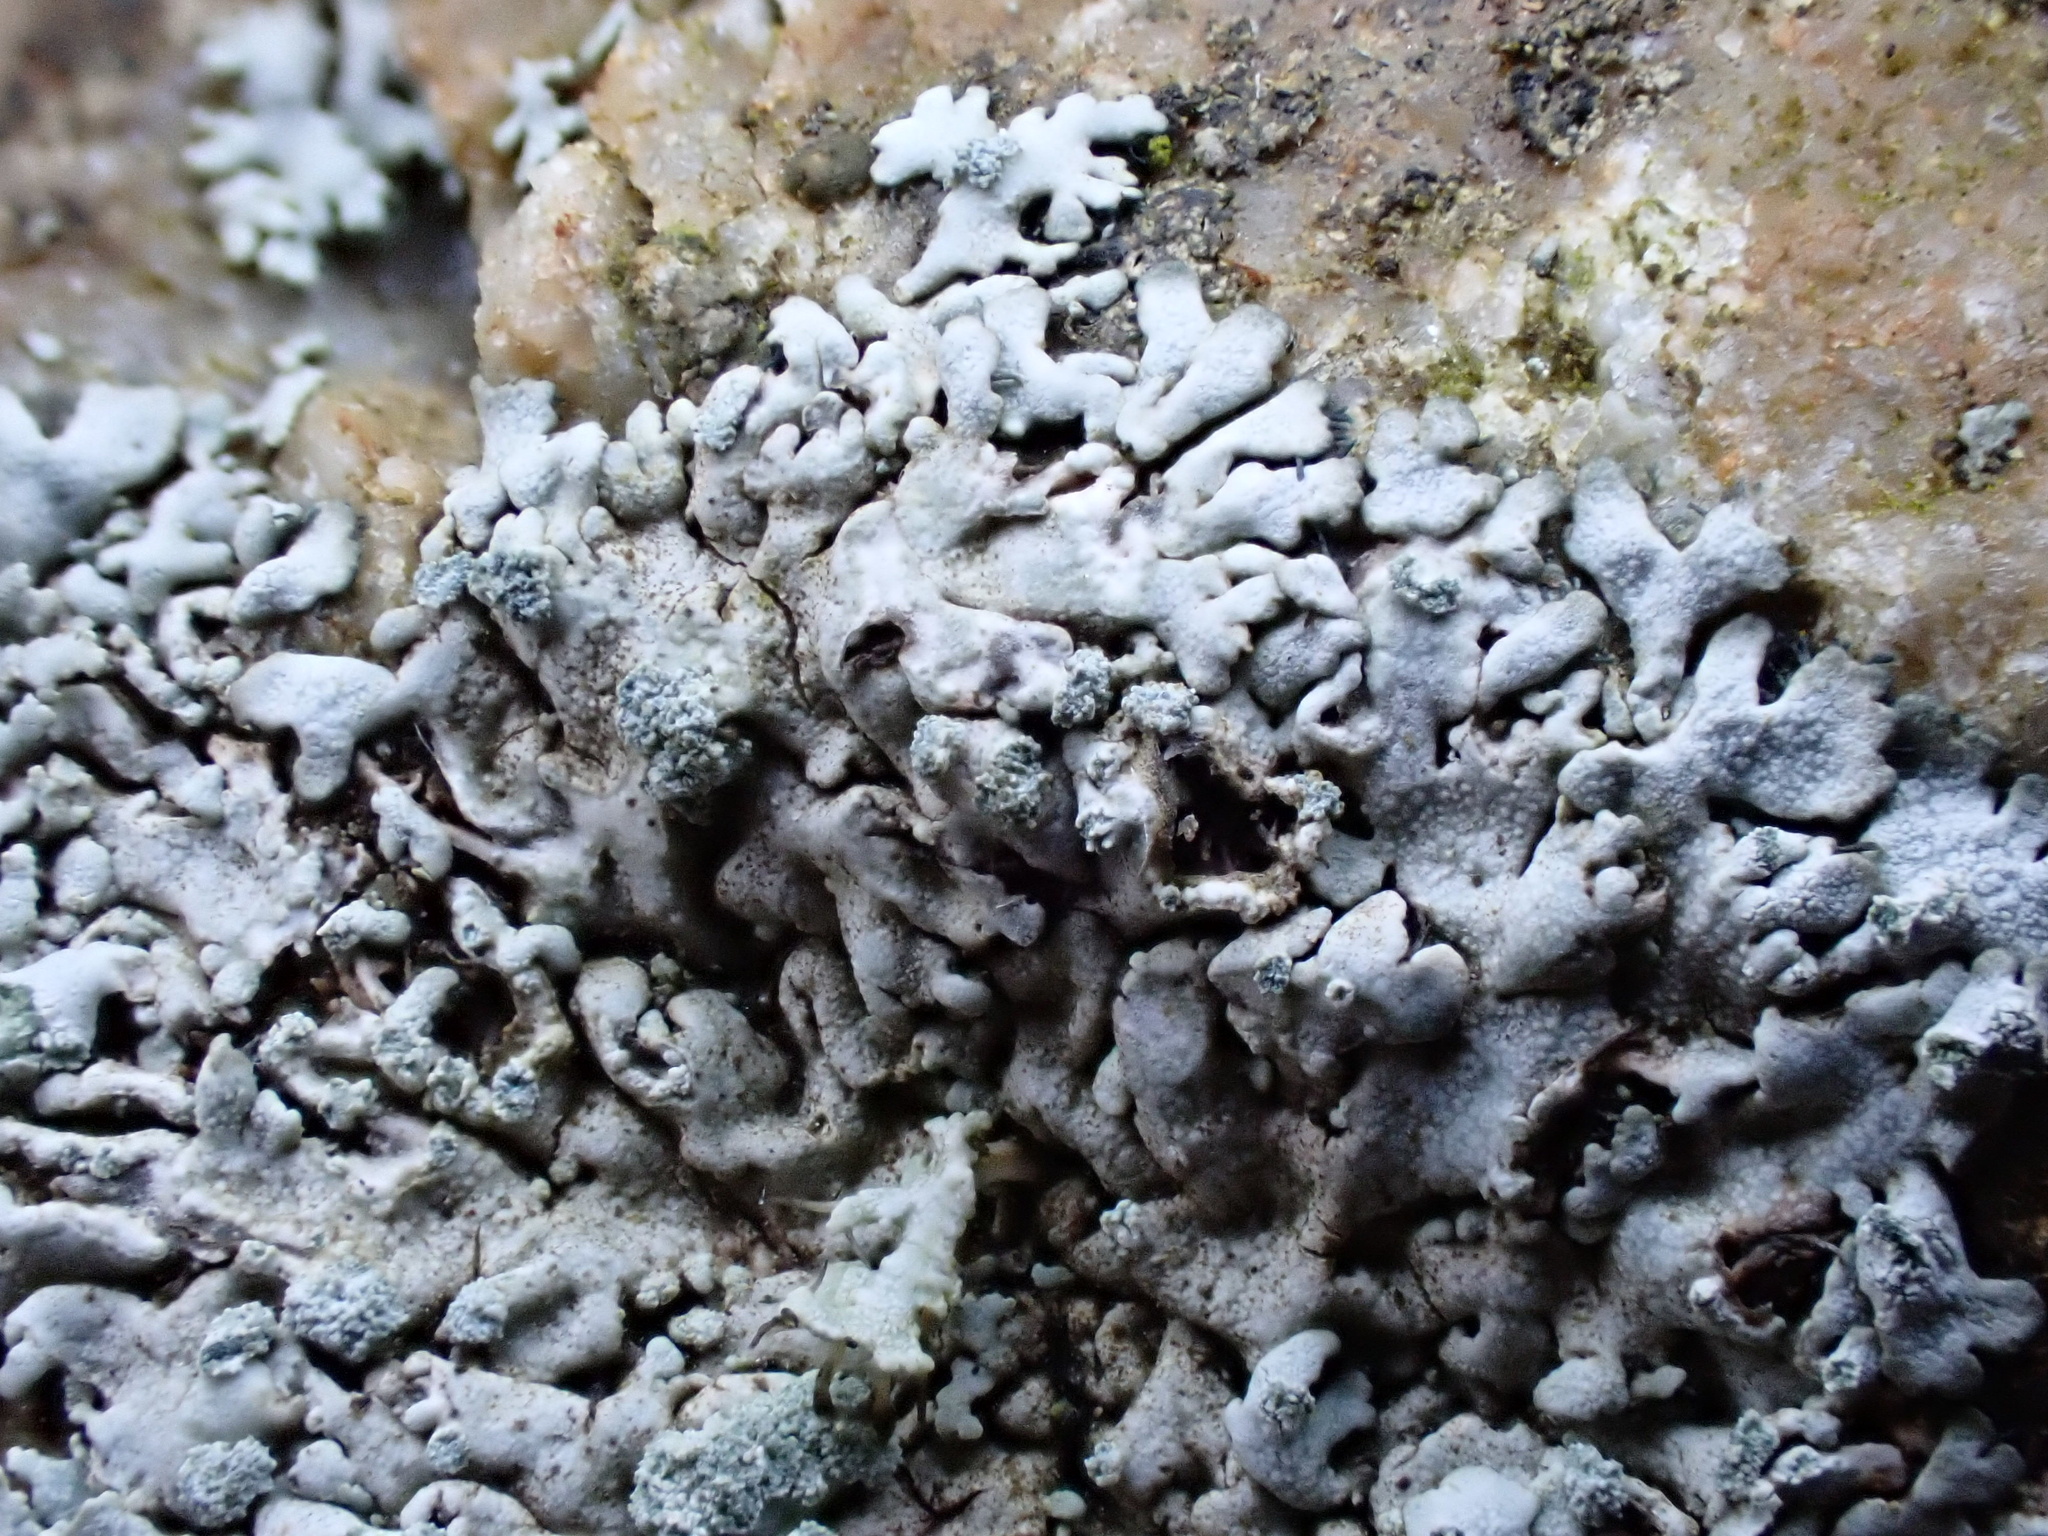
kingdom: Fungi
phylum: Ascomycota
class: Lecanoromycetes
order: Caliciales
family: Physciaceae
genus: Physcia
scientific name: Physcia caesia
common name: Blue-gray rosette lichen
